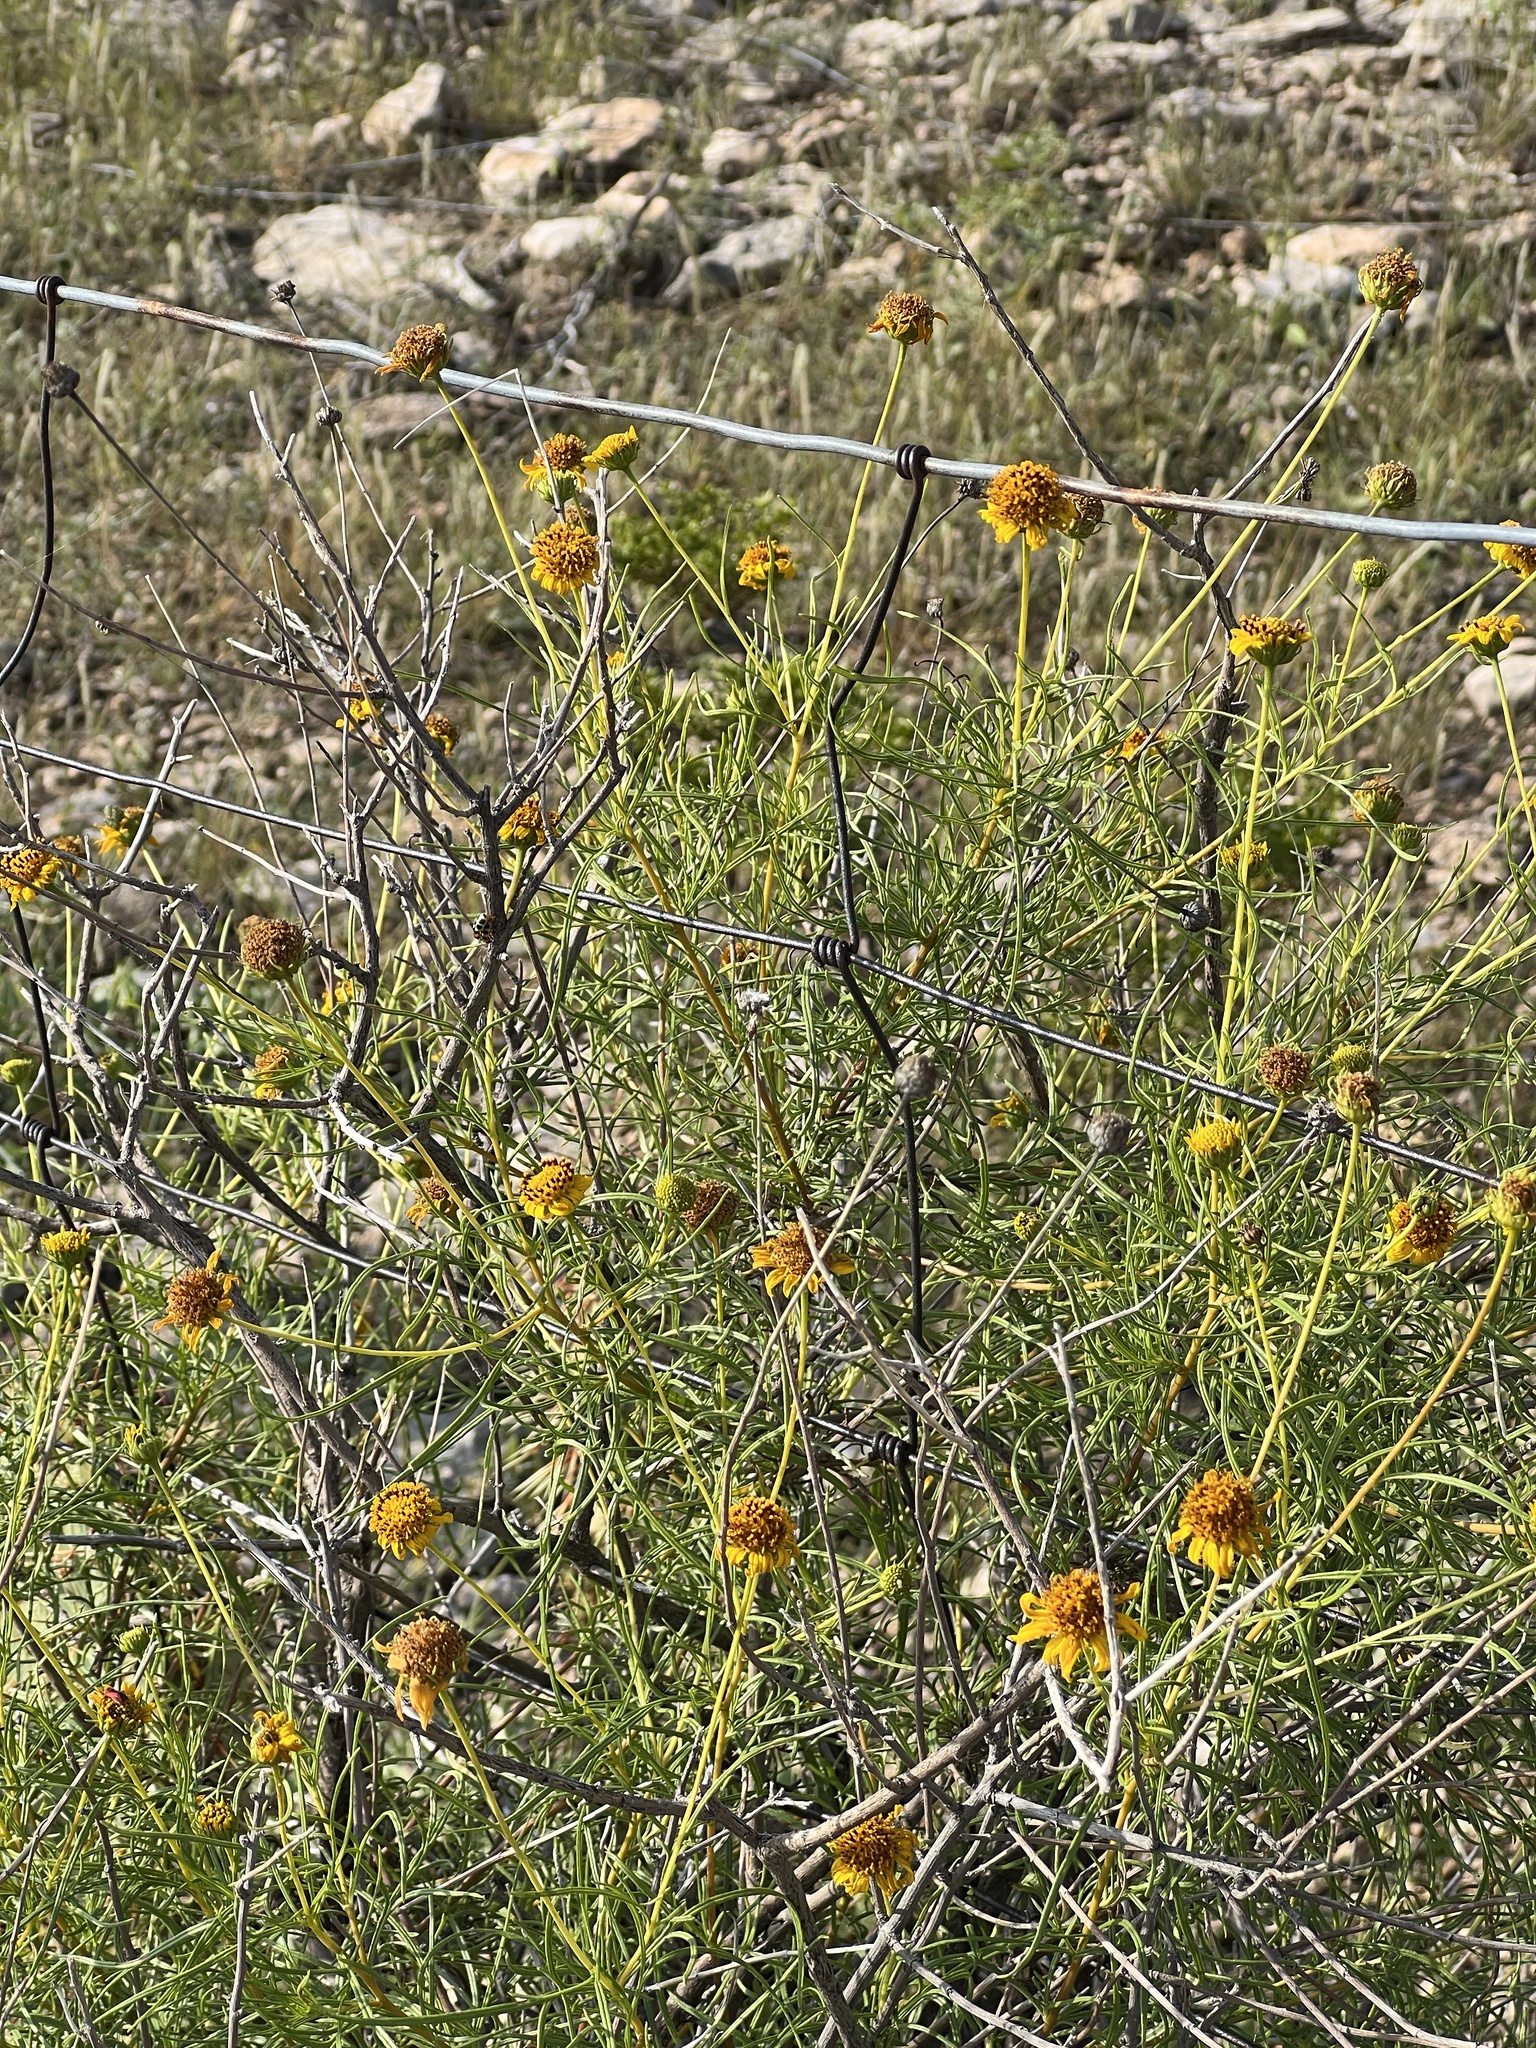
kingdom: Plantae
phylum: Tracheophyta
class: Magnoliopsida
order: Asterales
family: Asteraceae
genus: Sidneya
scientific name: Sidneya tenuifolia
